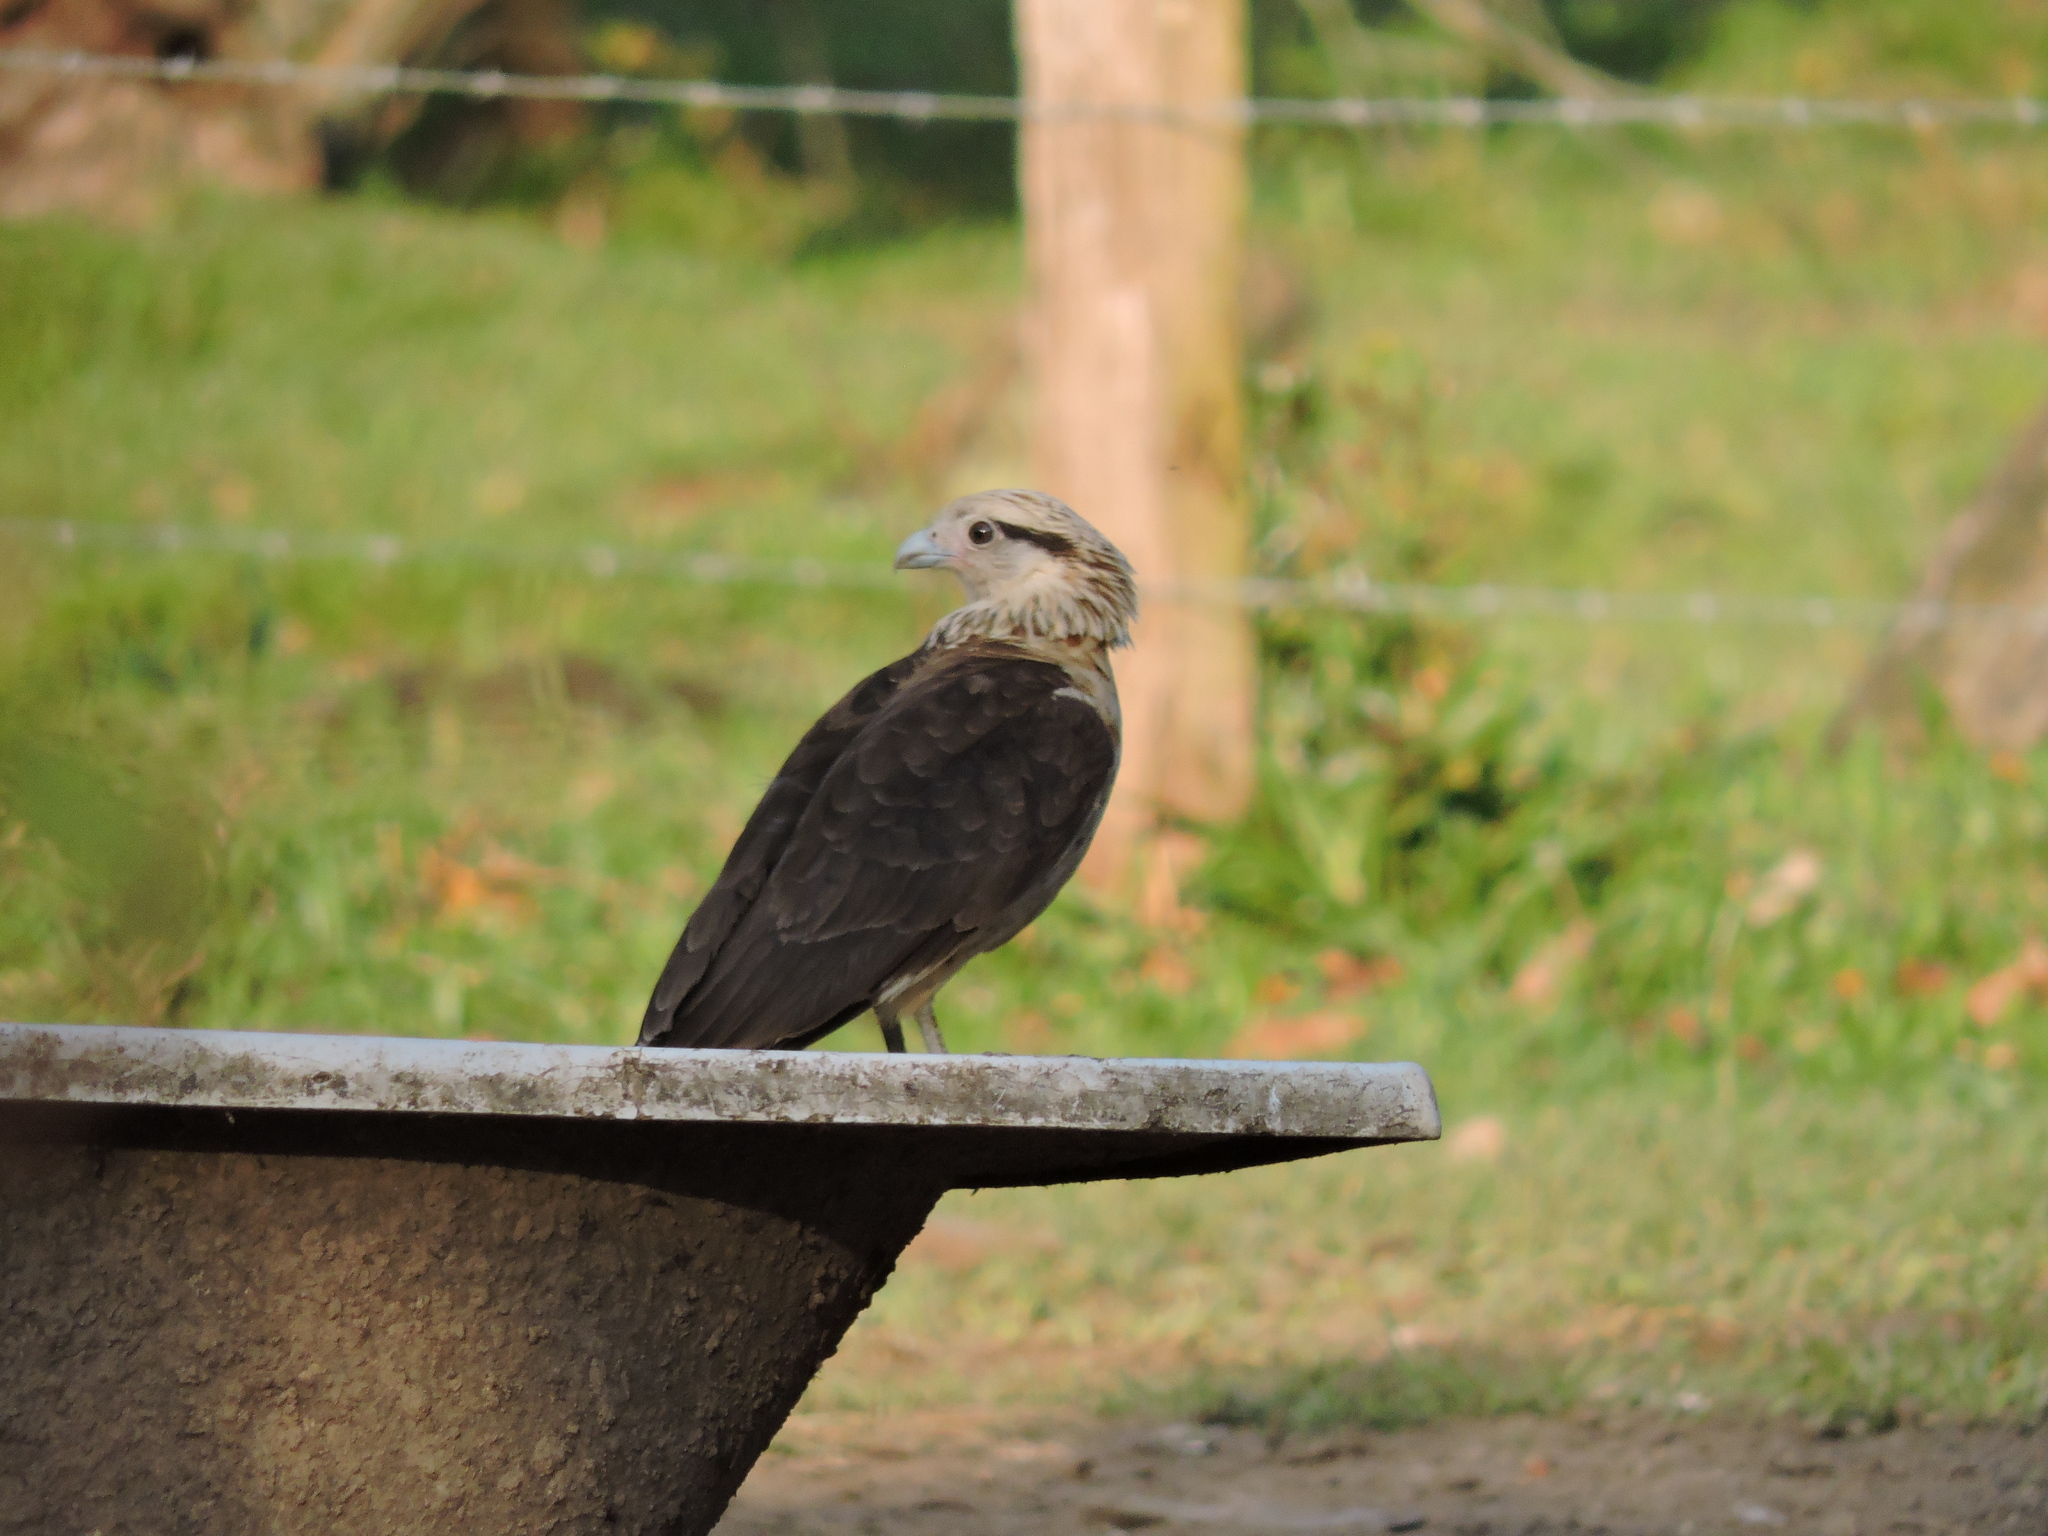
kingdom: Animalia
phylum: Chordata
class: Aves
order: Falconiformes
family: Falconidae
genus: Daptrius
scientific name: Daptrius
